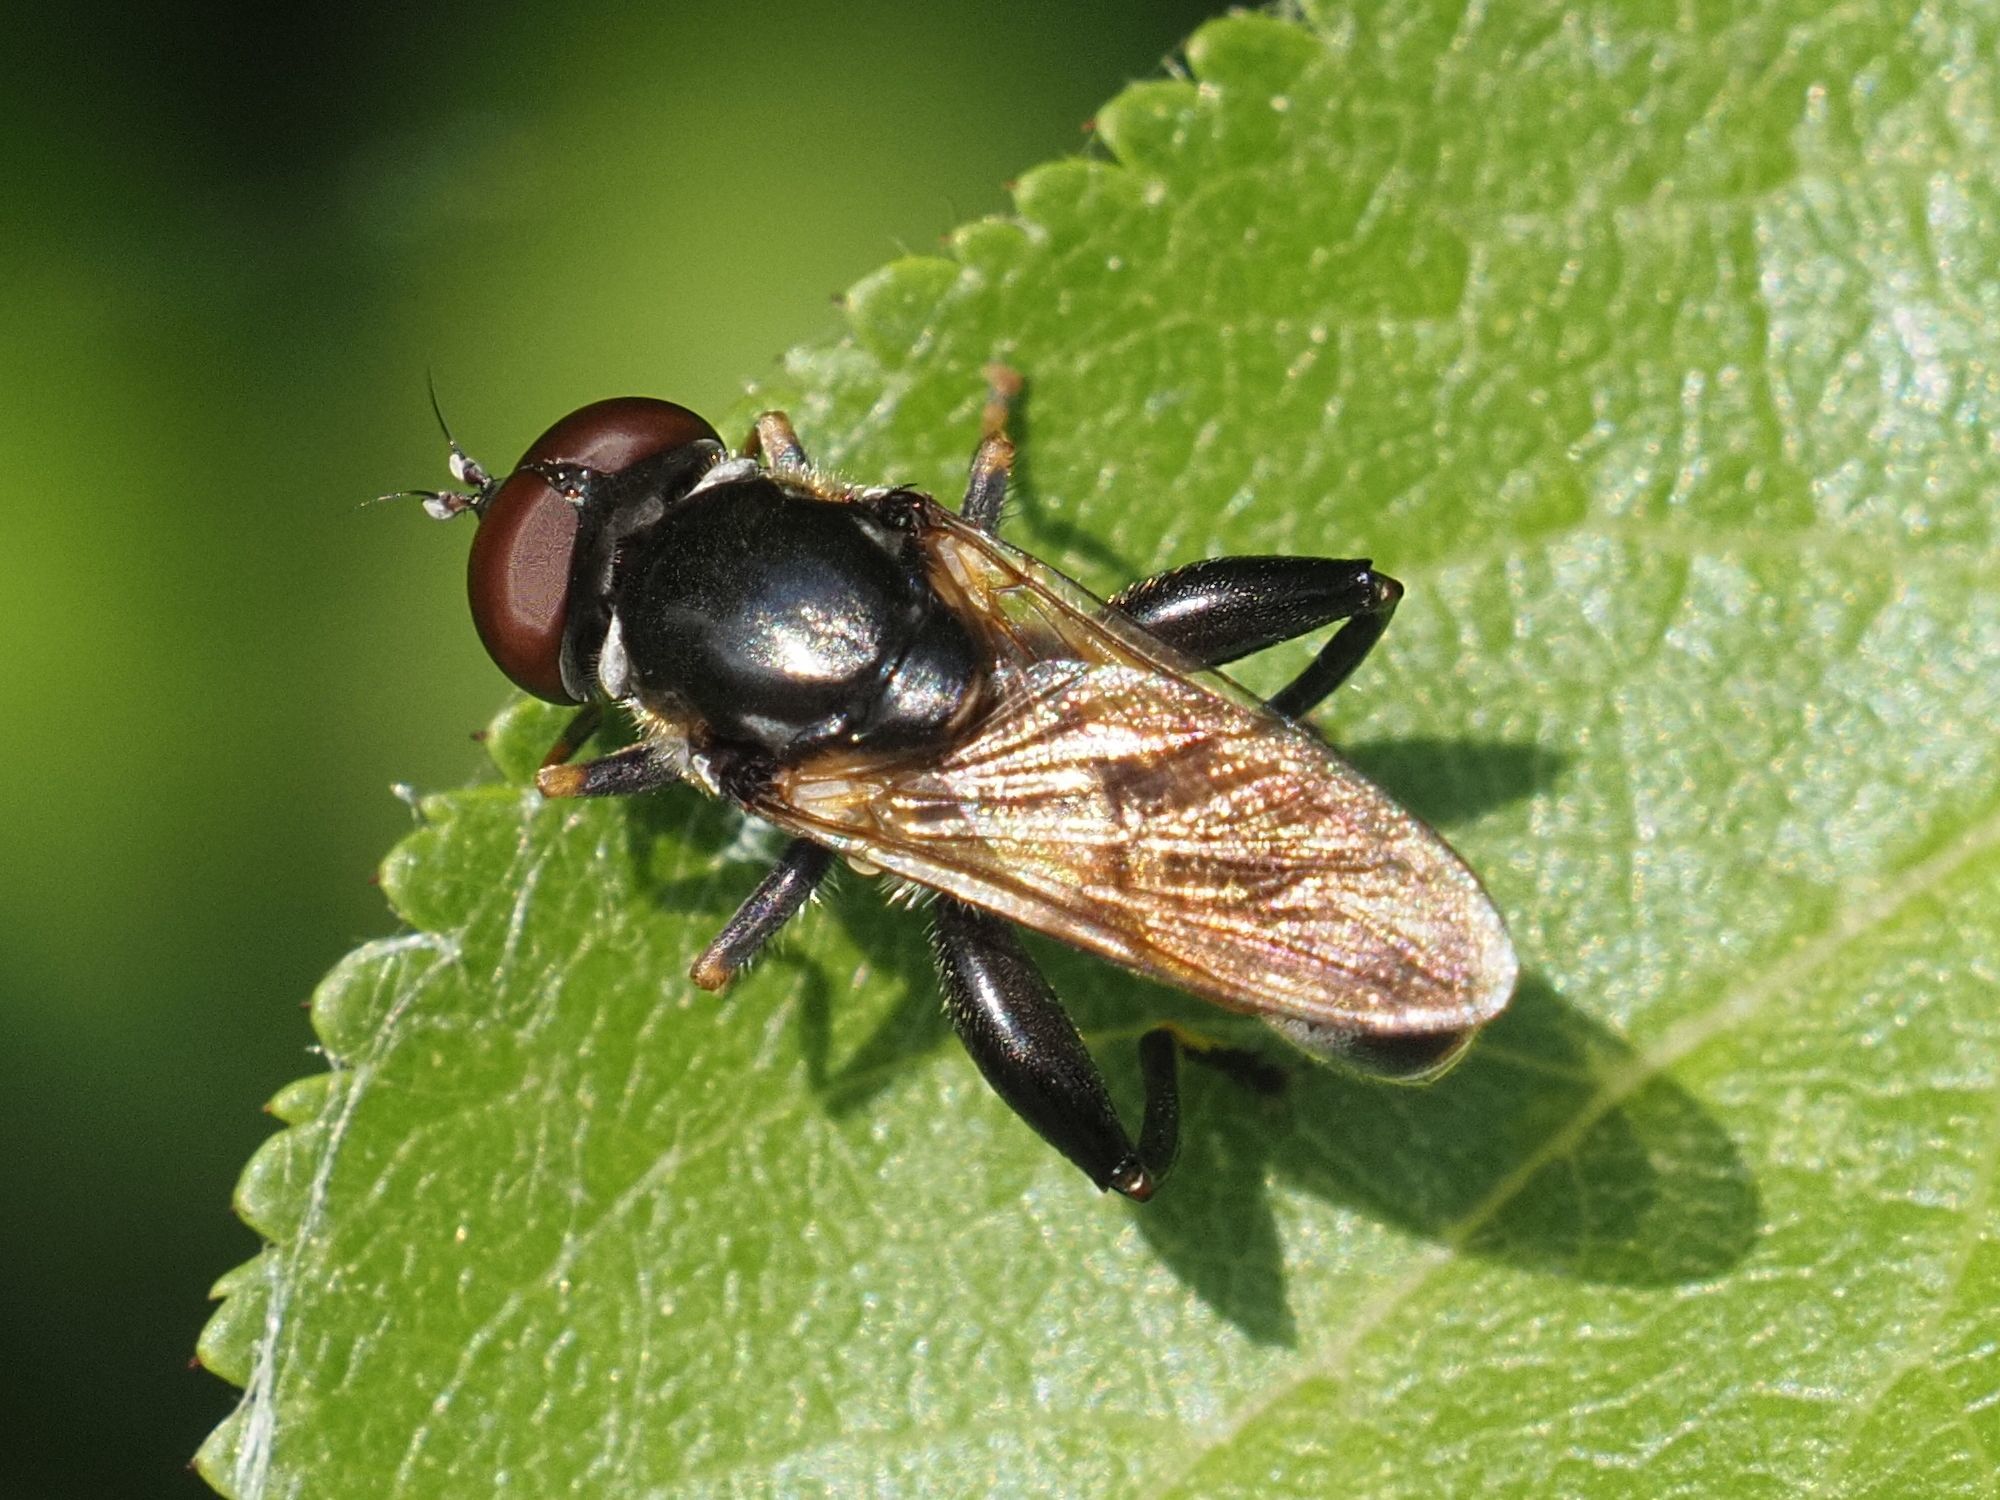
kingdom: Animalia
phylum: Arthropoda
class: Insecta
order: Diptera
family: Syrphidae
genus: Tropidia
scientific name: Tropidia scita
